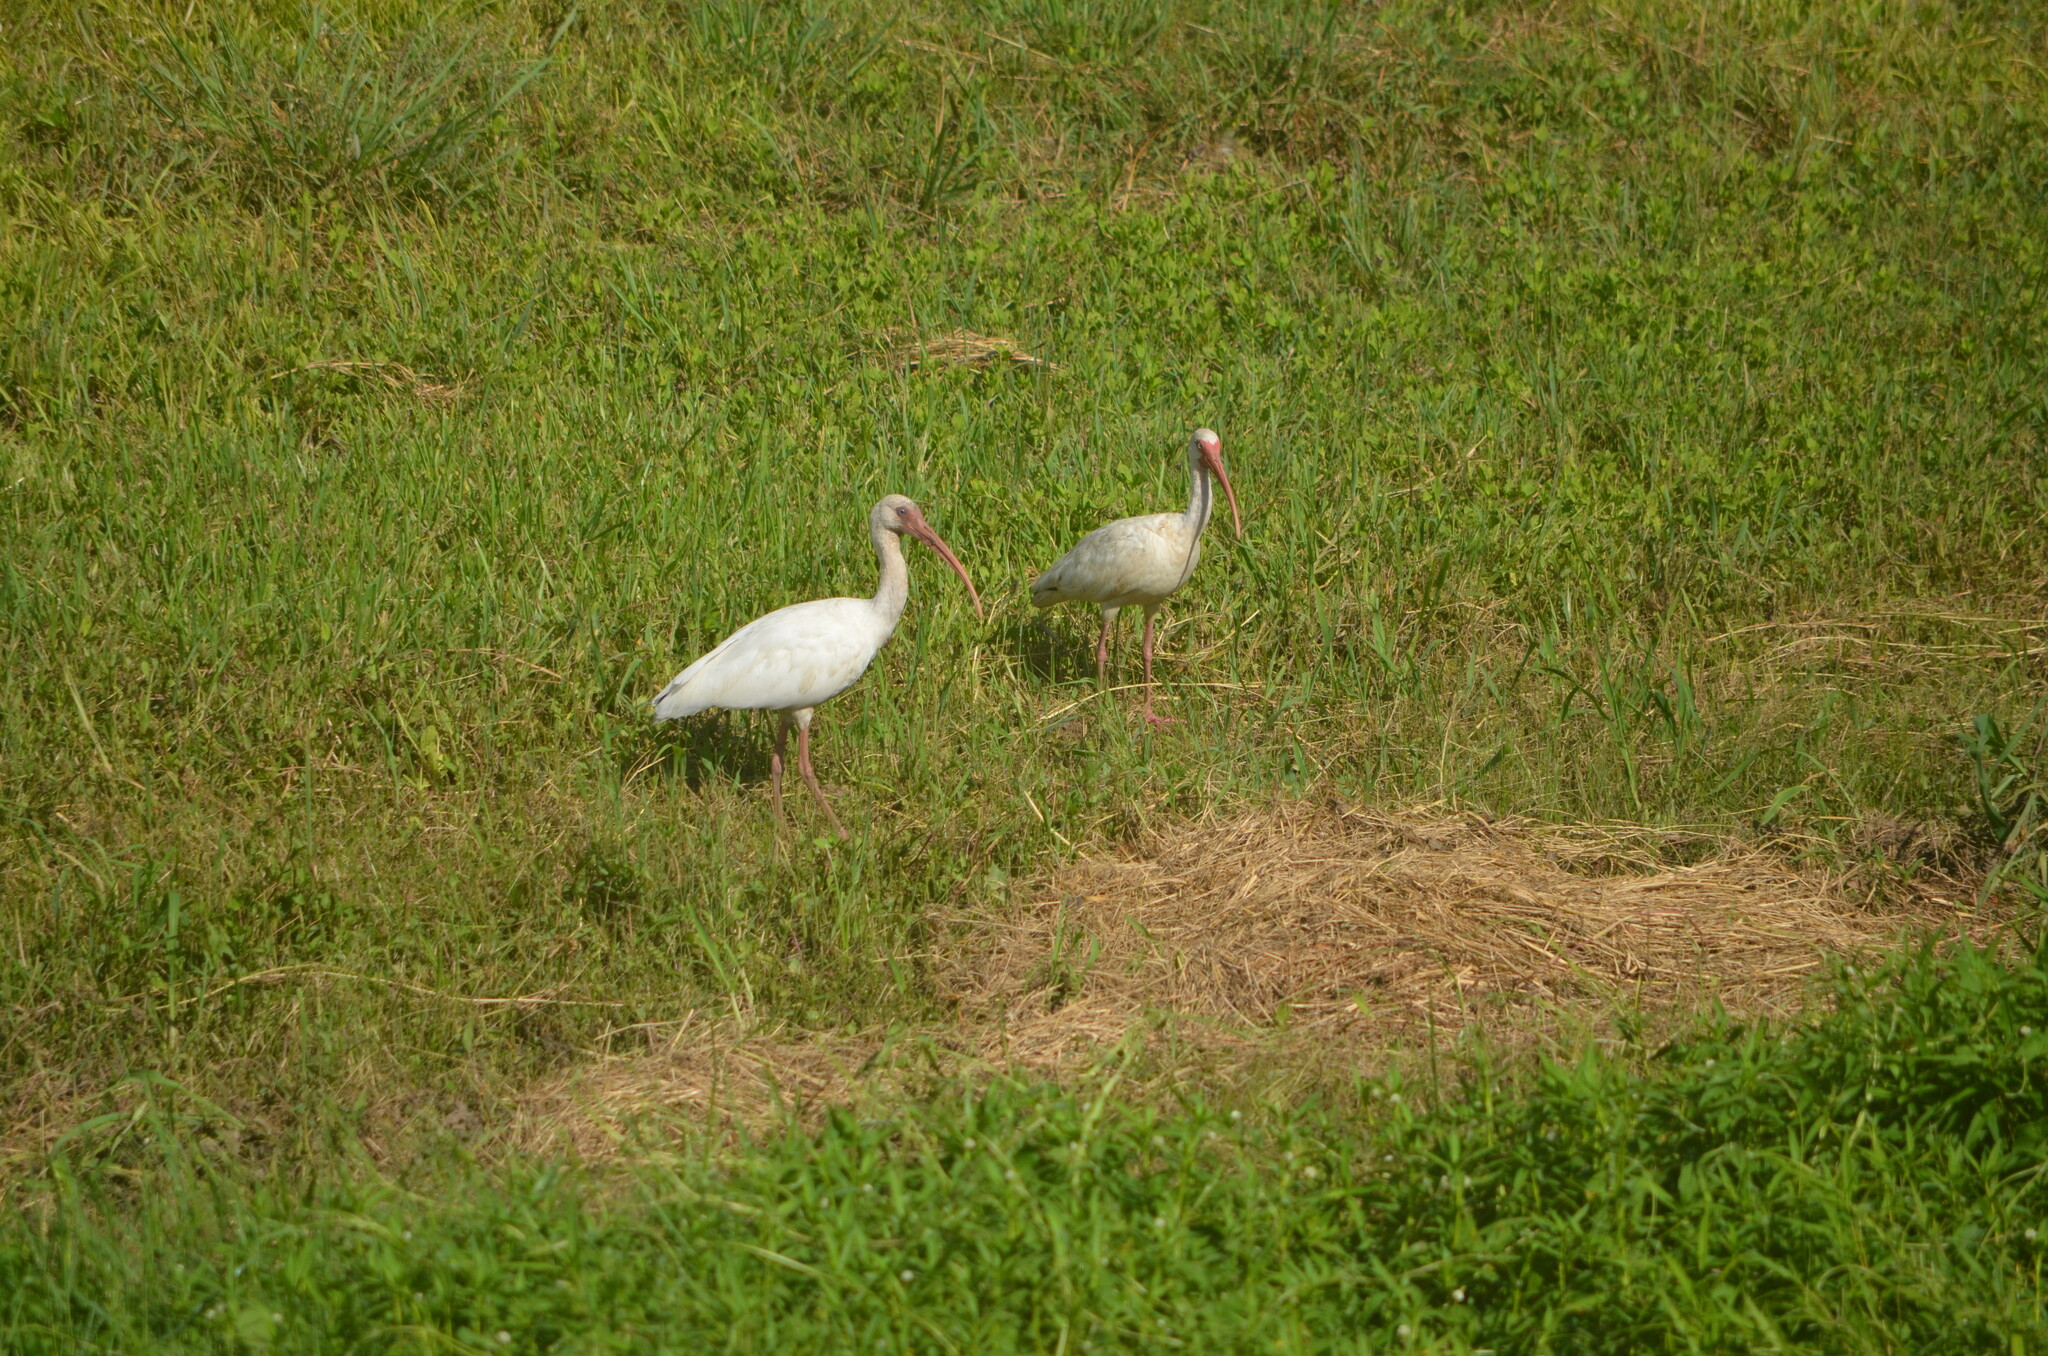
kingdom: Animalia
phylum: Chordata
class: Aves
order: Pelecaniformes
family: Threskiornithidae
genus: Eudocimus
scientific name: Eudocimus albus
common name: White ibis
